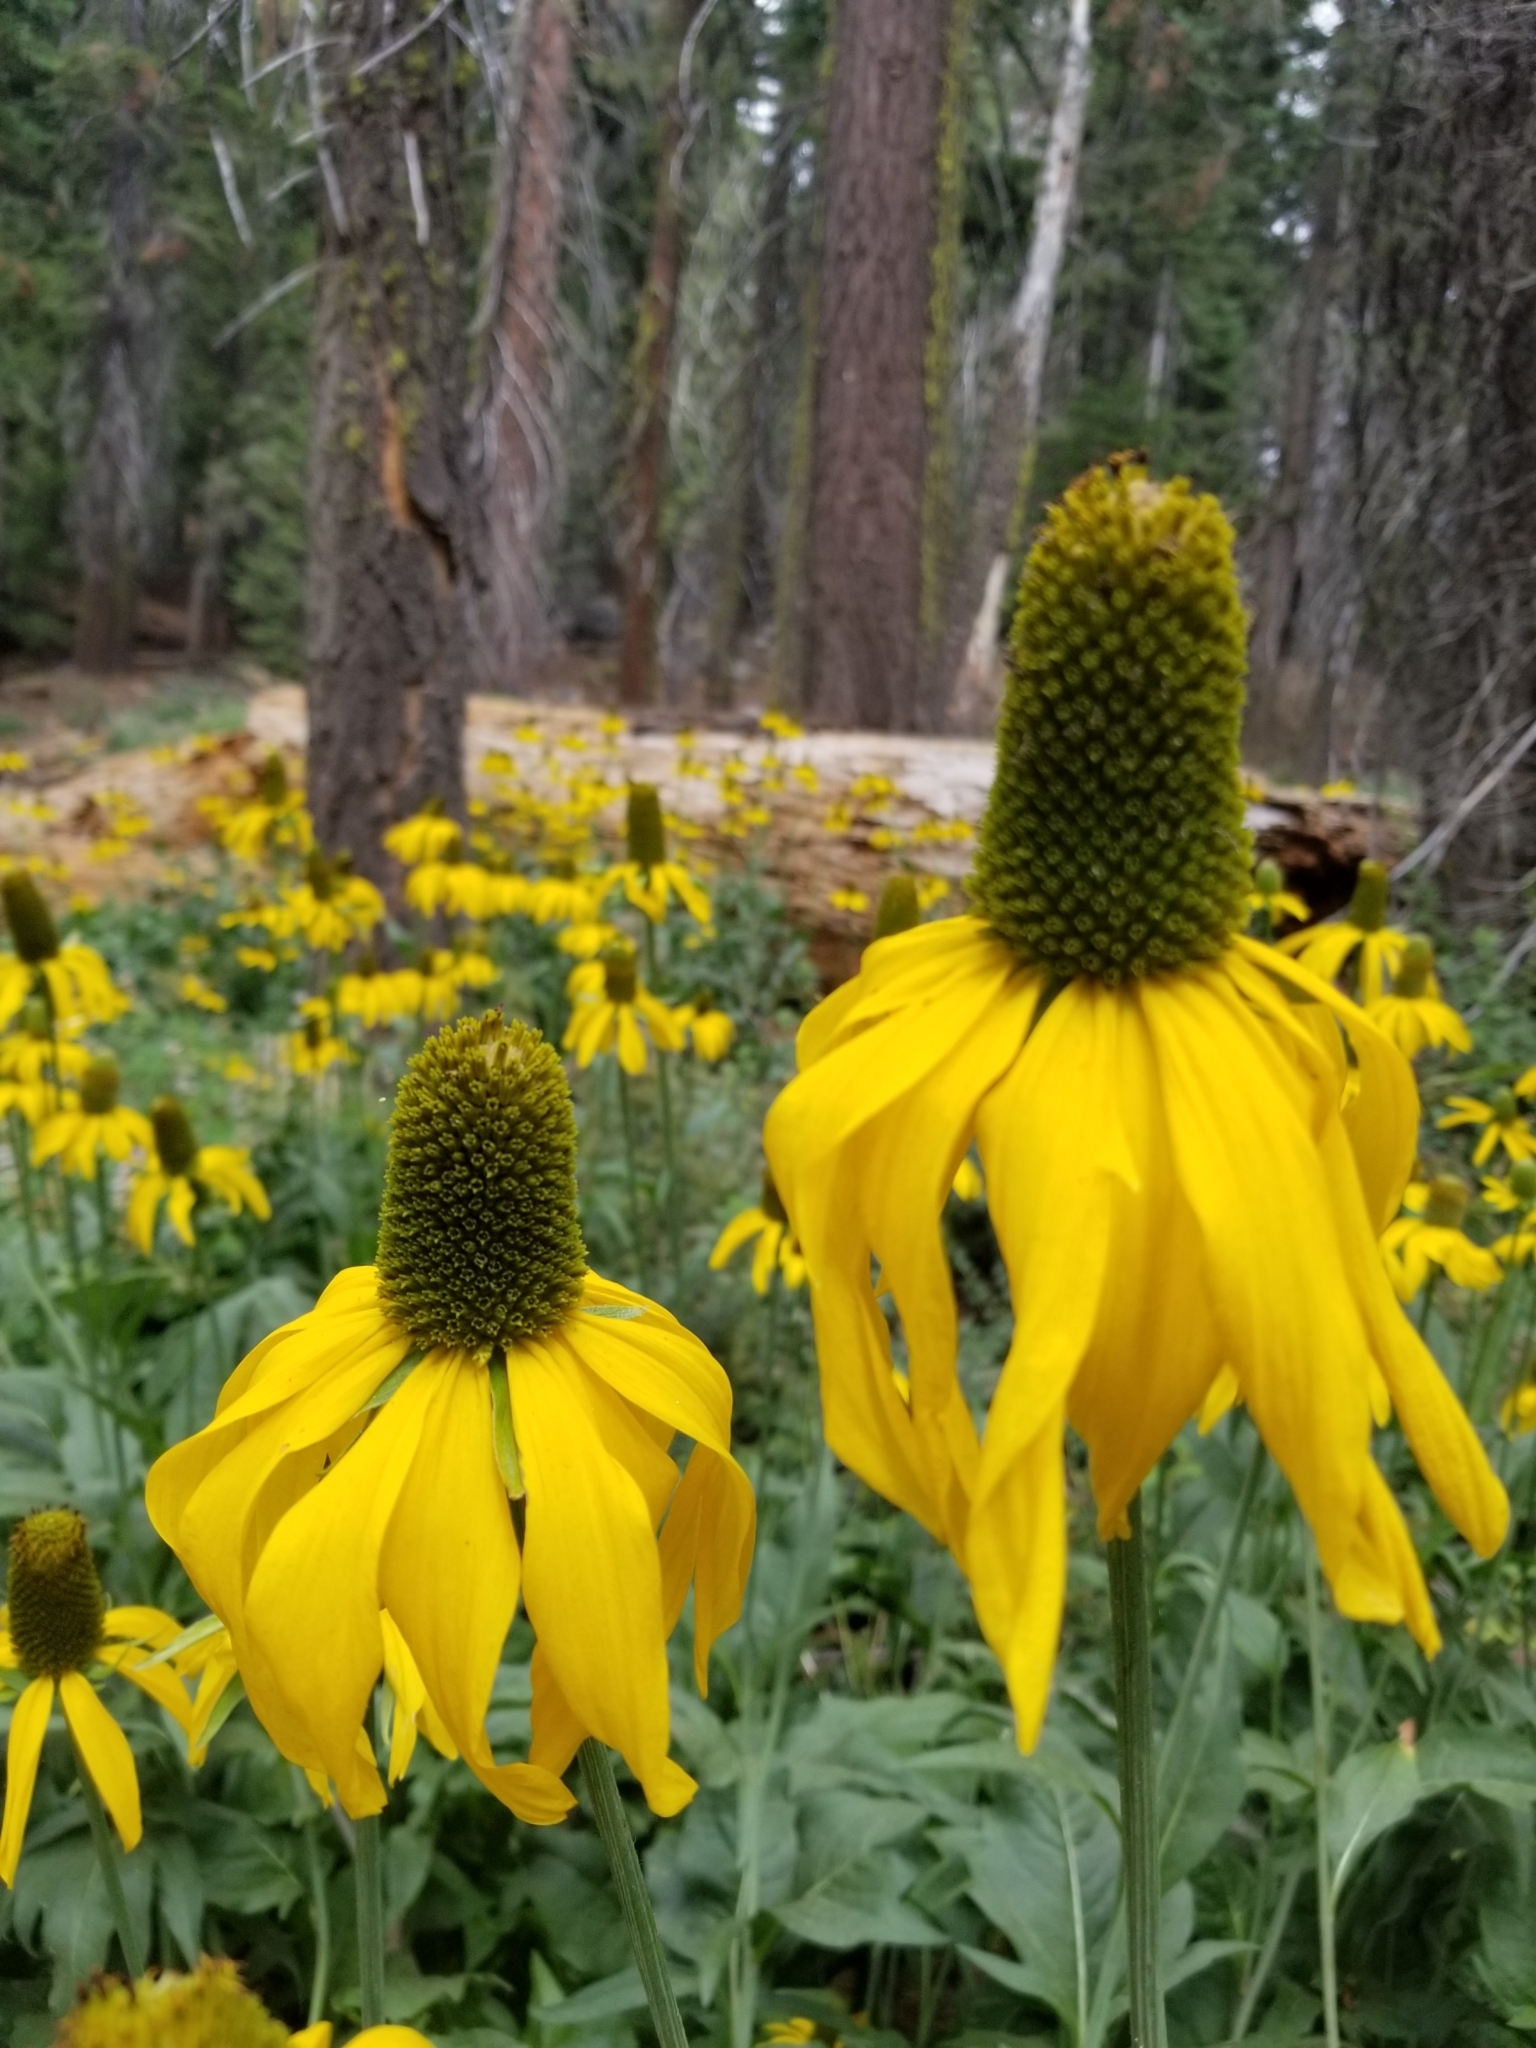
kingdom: Plantae
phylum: Tracheophyta
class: Magnoliopsida
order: Asterales
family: Asteraceae
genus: Rudbeckia
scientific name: Rudbeckia californica
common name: California coneflower
